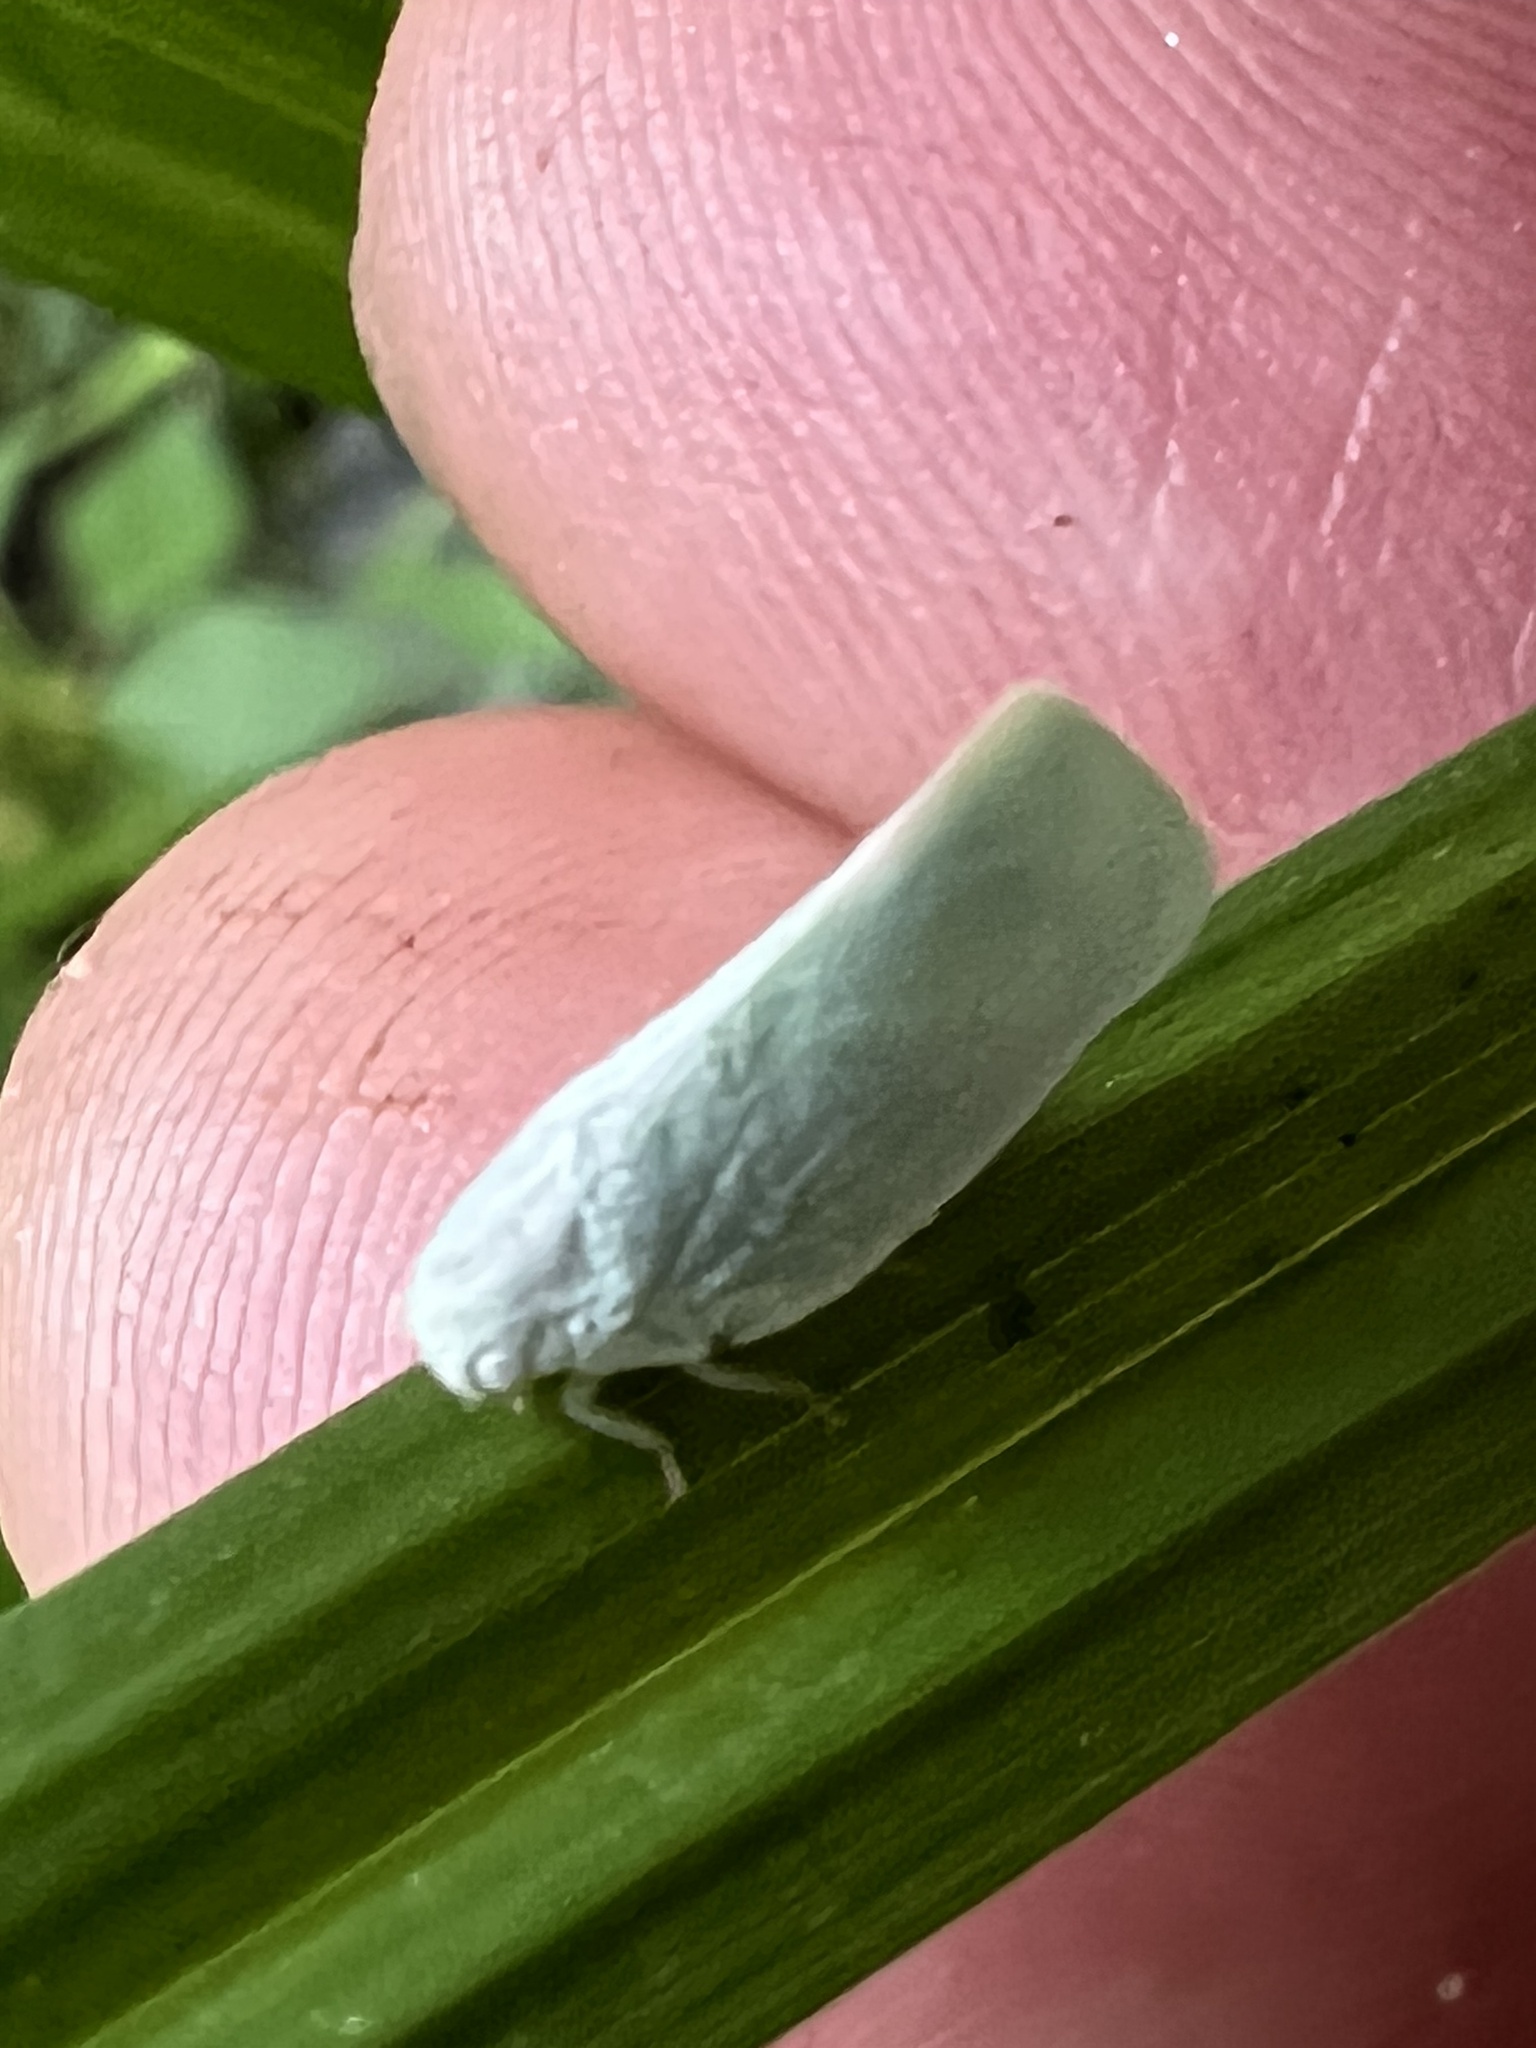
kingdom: Animalia
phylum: Arthropoda
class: Insecta
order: Hemiptera
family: Flatidae
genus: Flatormenis
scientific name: Flatormenis proxima
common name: Northern flatid planthopper
